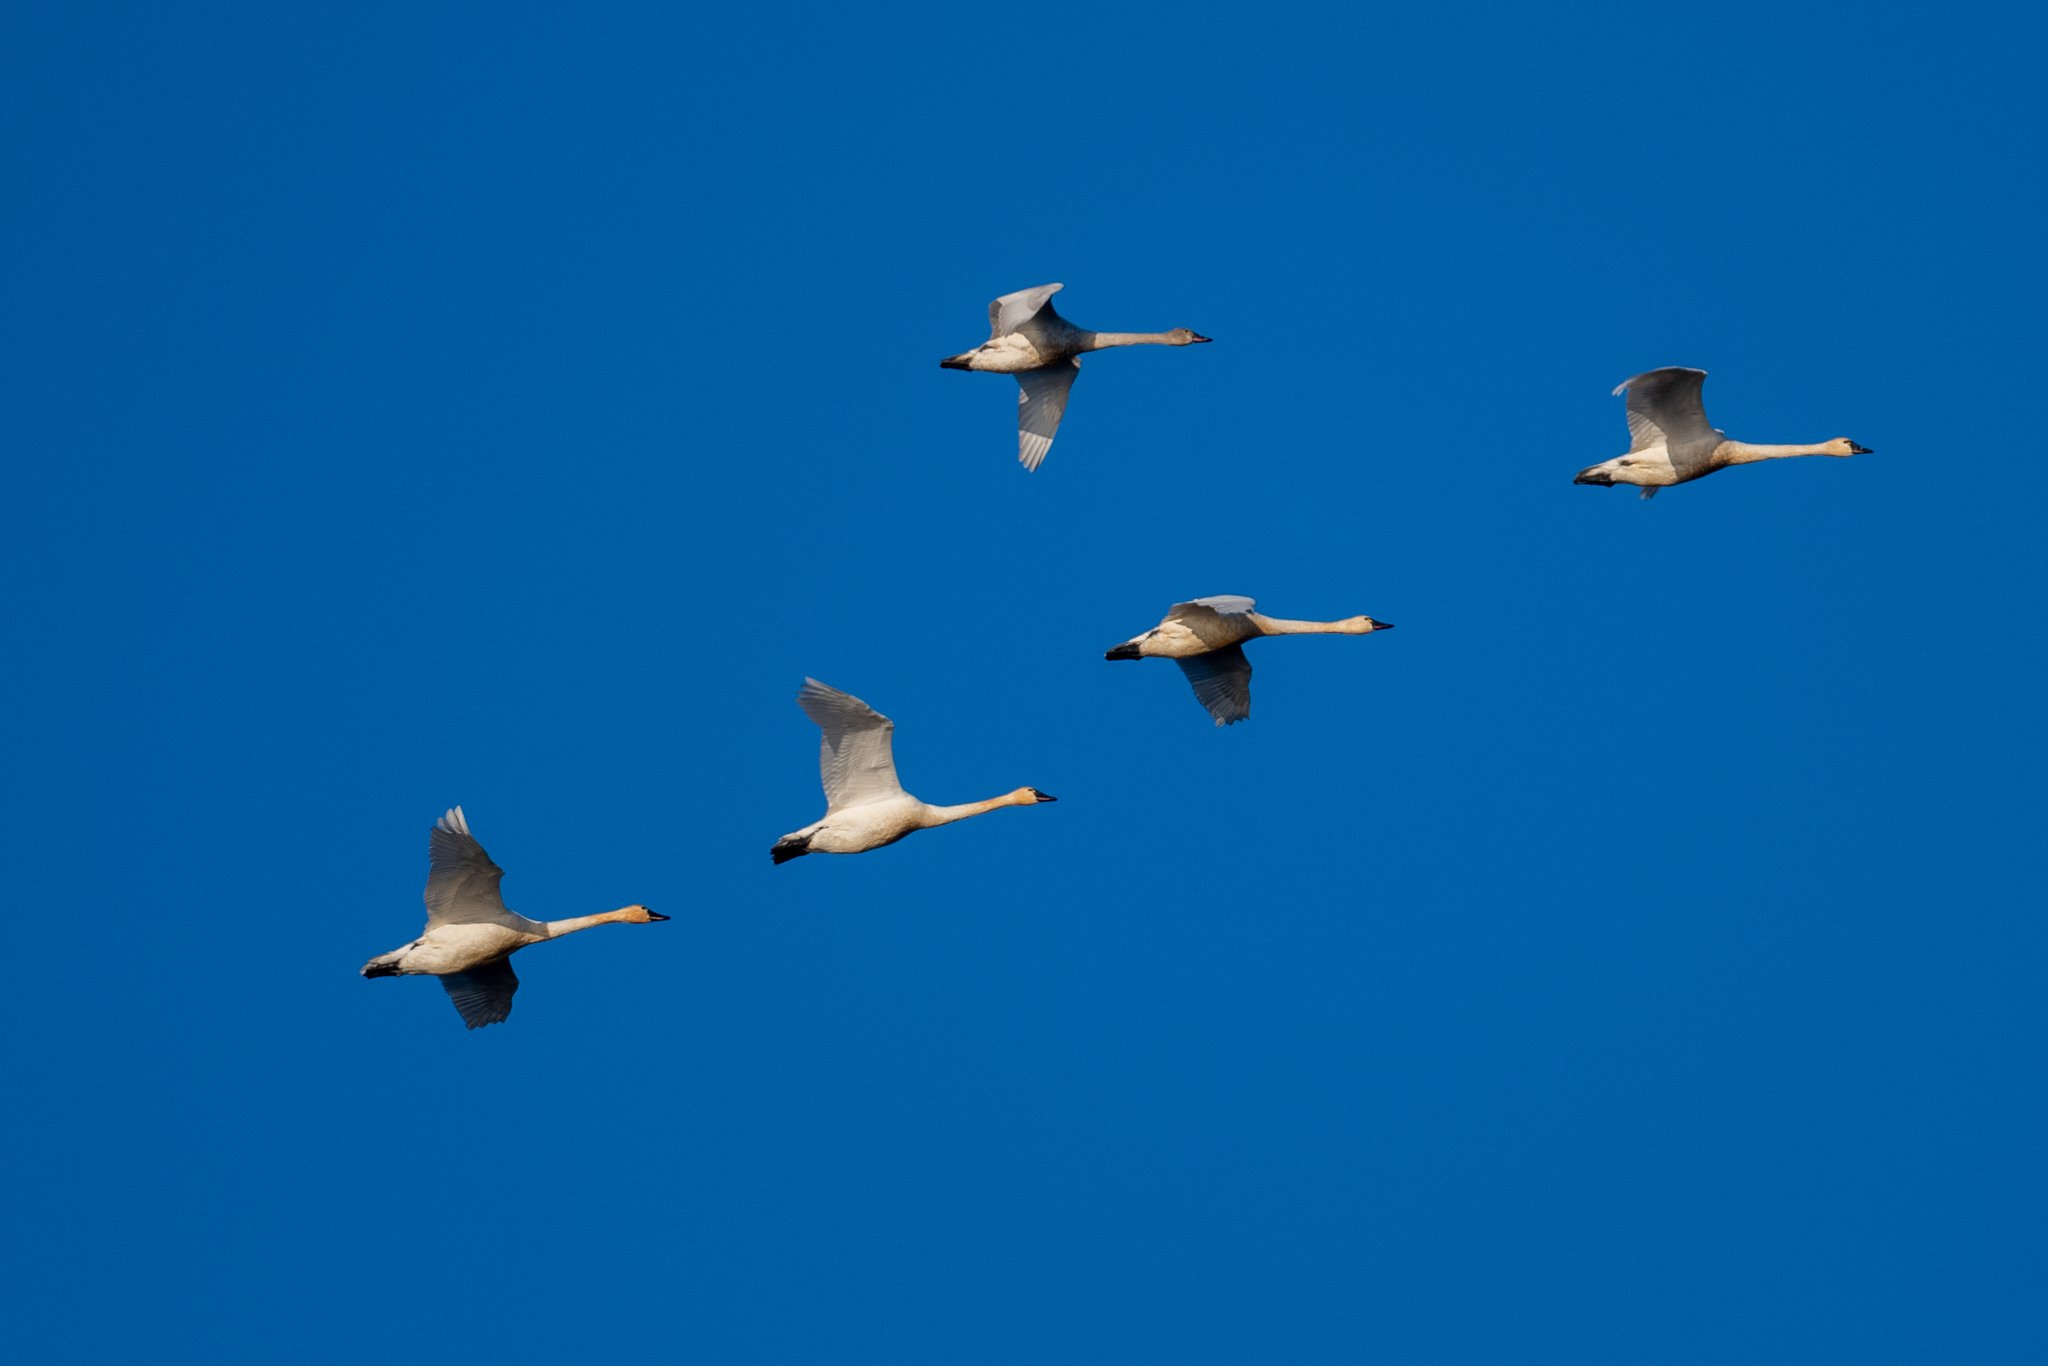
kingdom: Animalia
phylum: Chordata
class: Aves
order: Anseriformes
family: Anatidae
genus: Cygnus
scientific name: Cygnus columbianus
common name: Tundra swan
